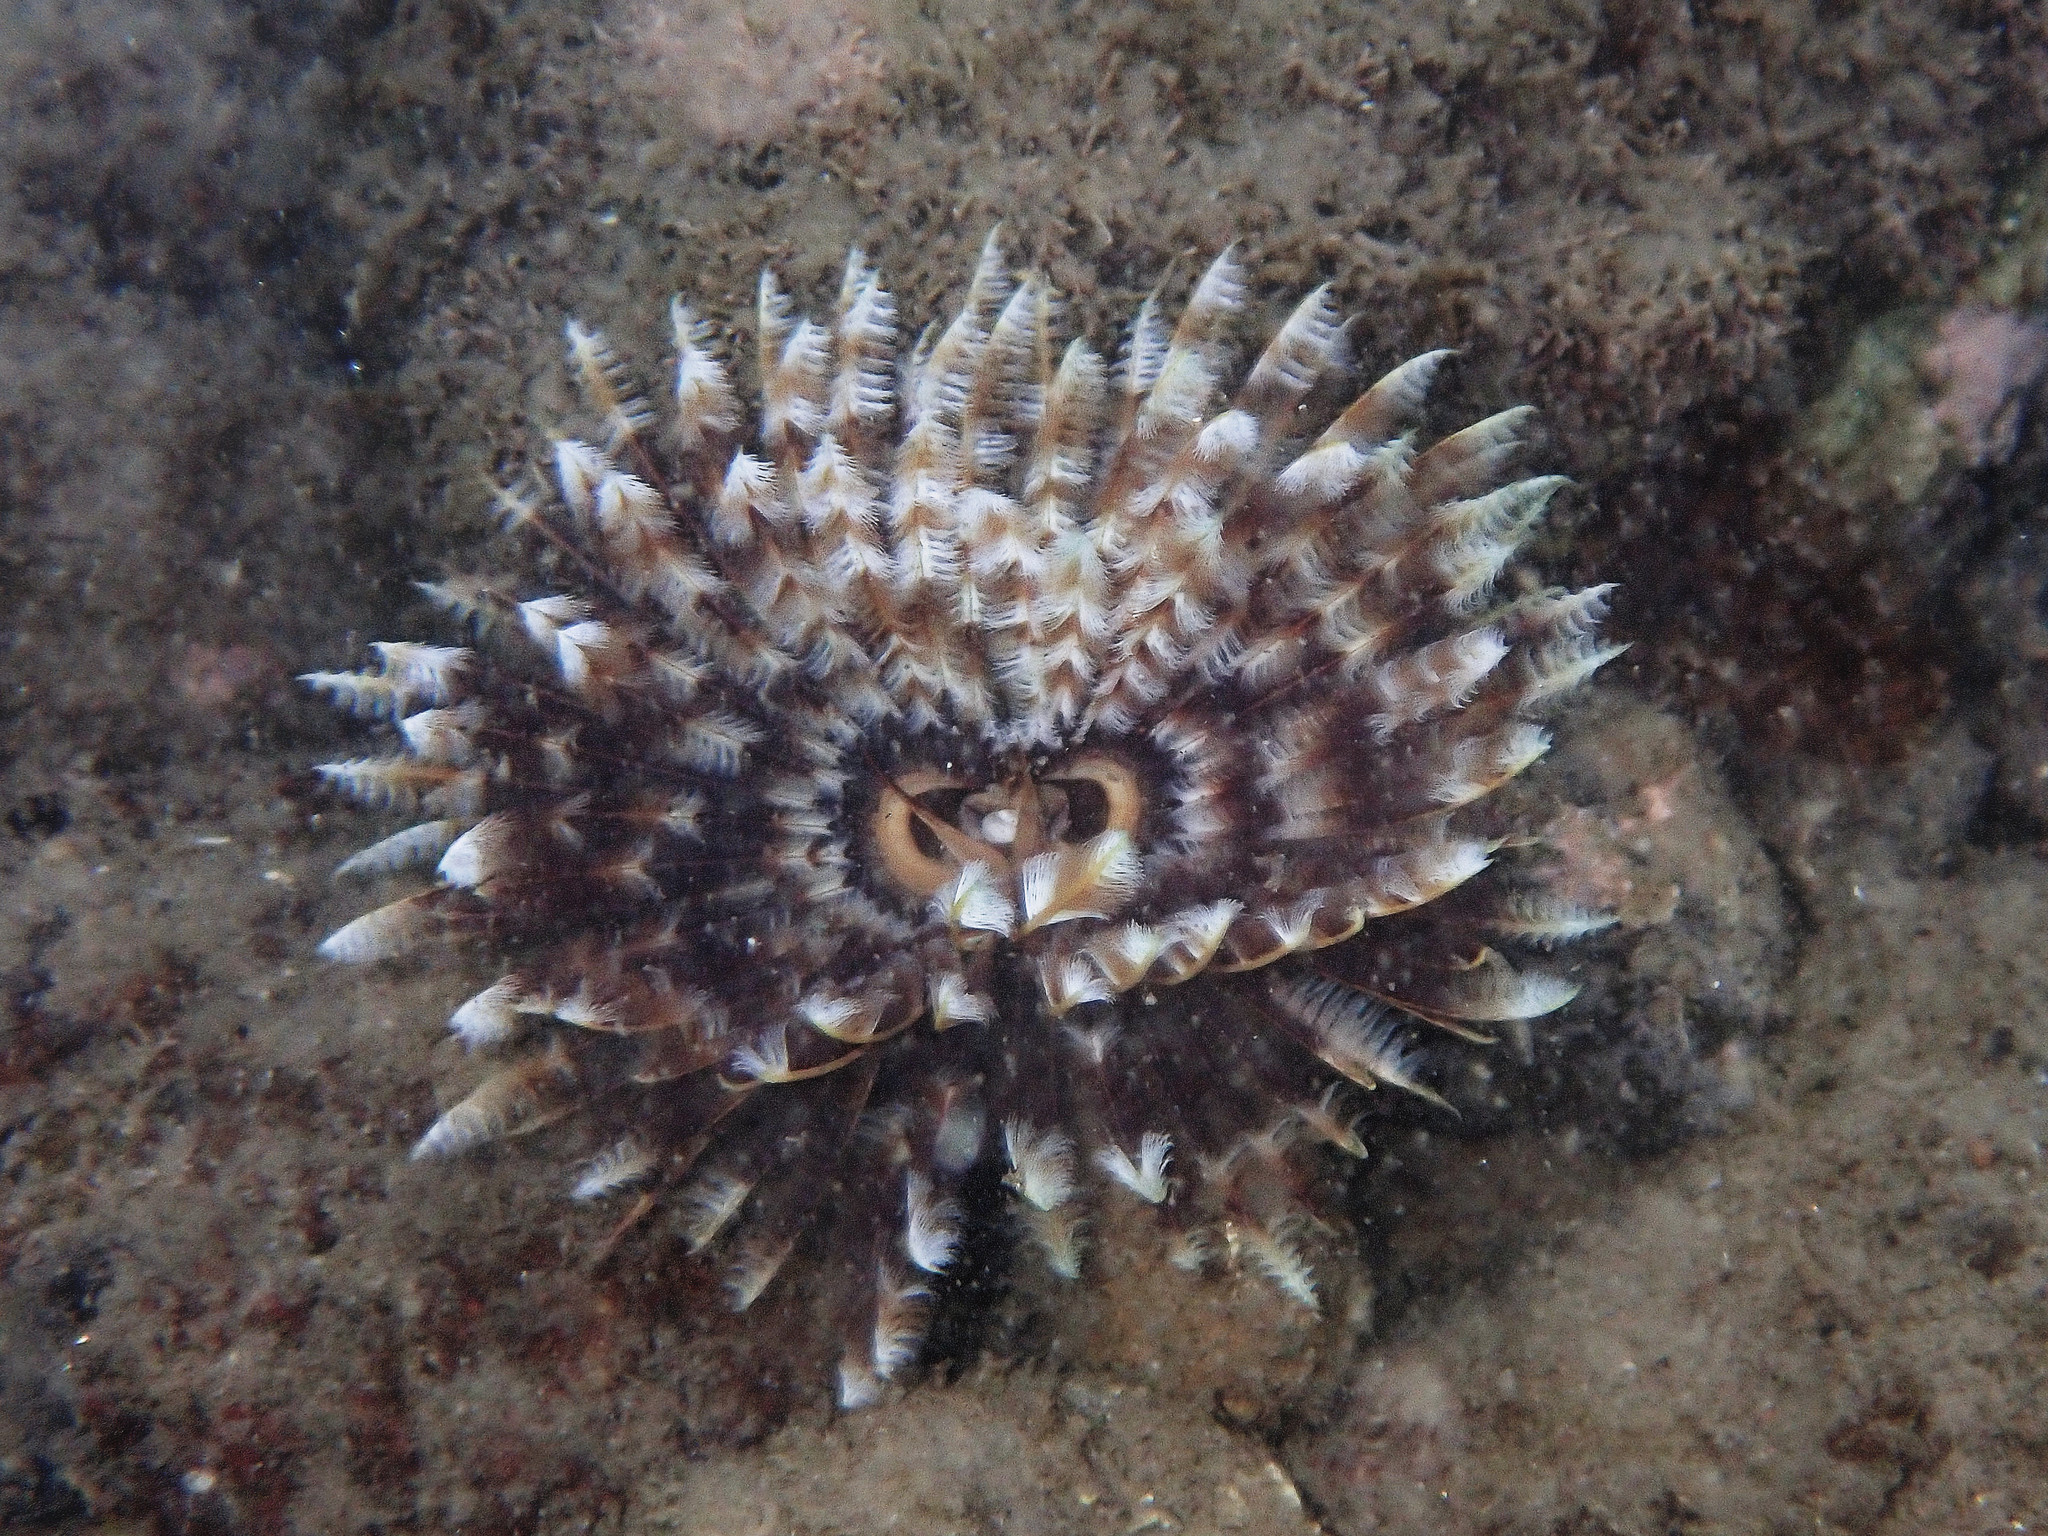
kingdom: Animalia
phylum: Annelida
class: Polychaeta
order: Sabellida
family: Sabellidae
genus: Sabellastarte
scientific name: Sabellastarte magnifica
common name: Giant feather-duster worm
